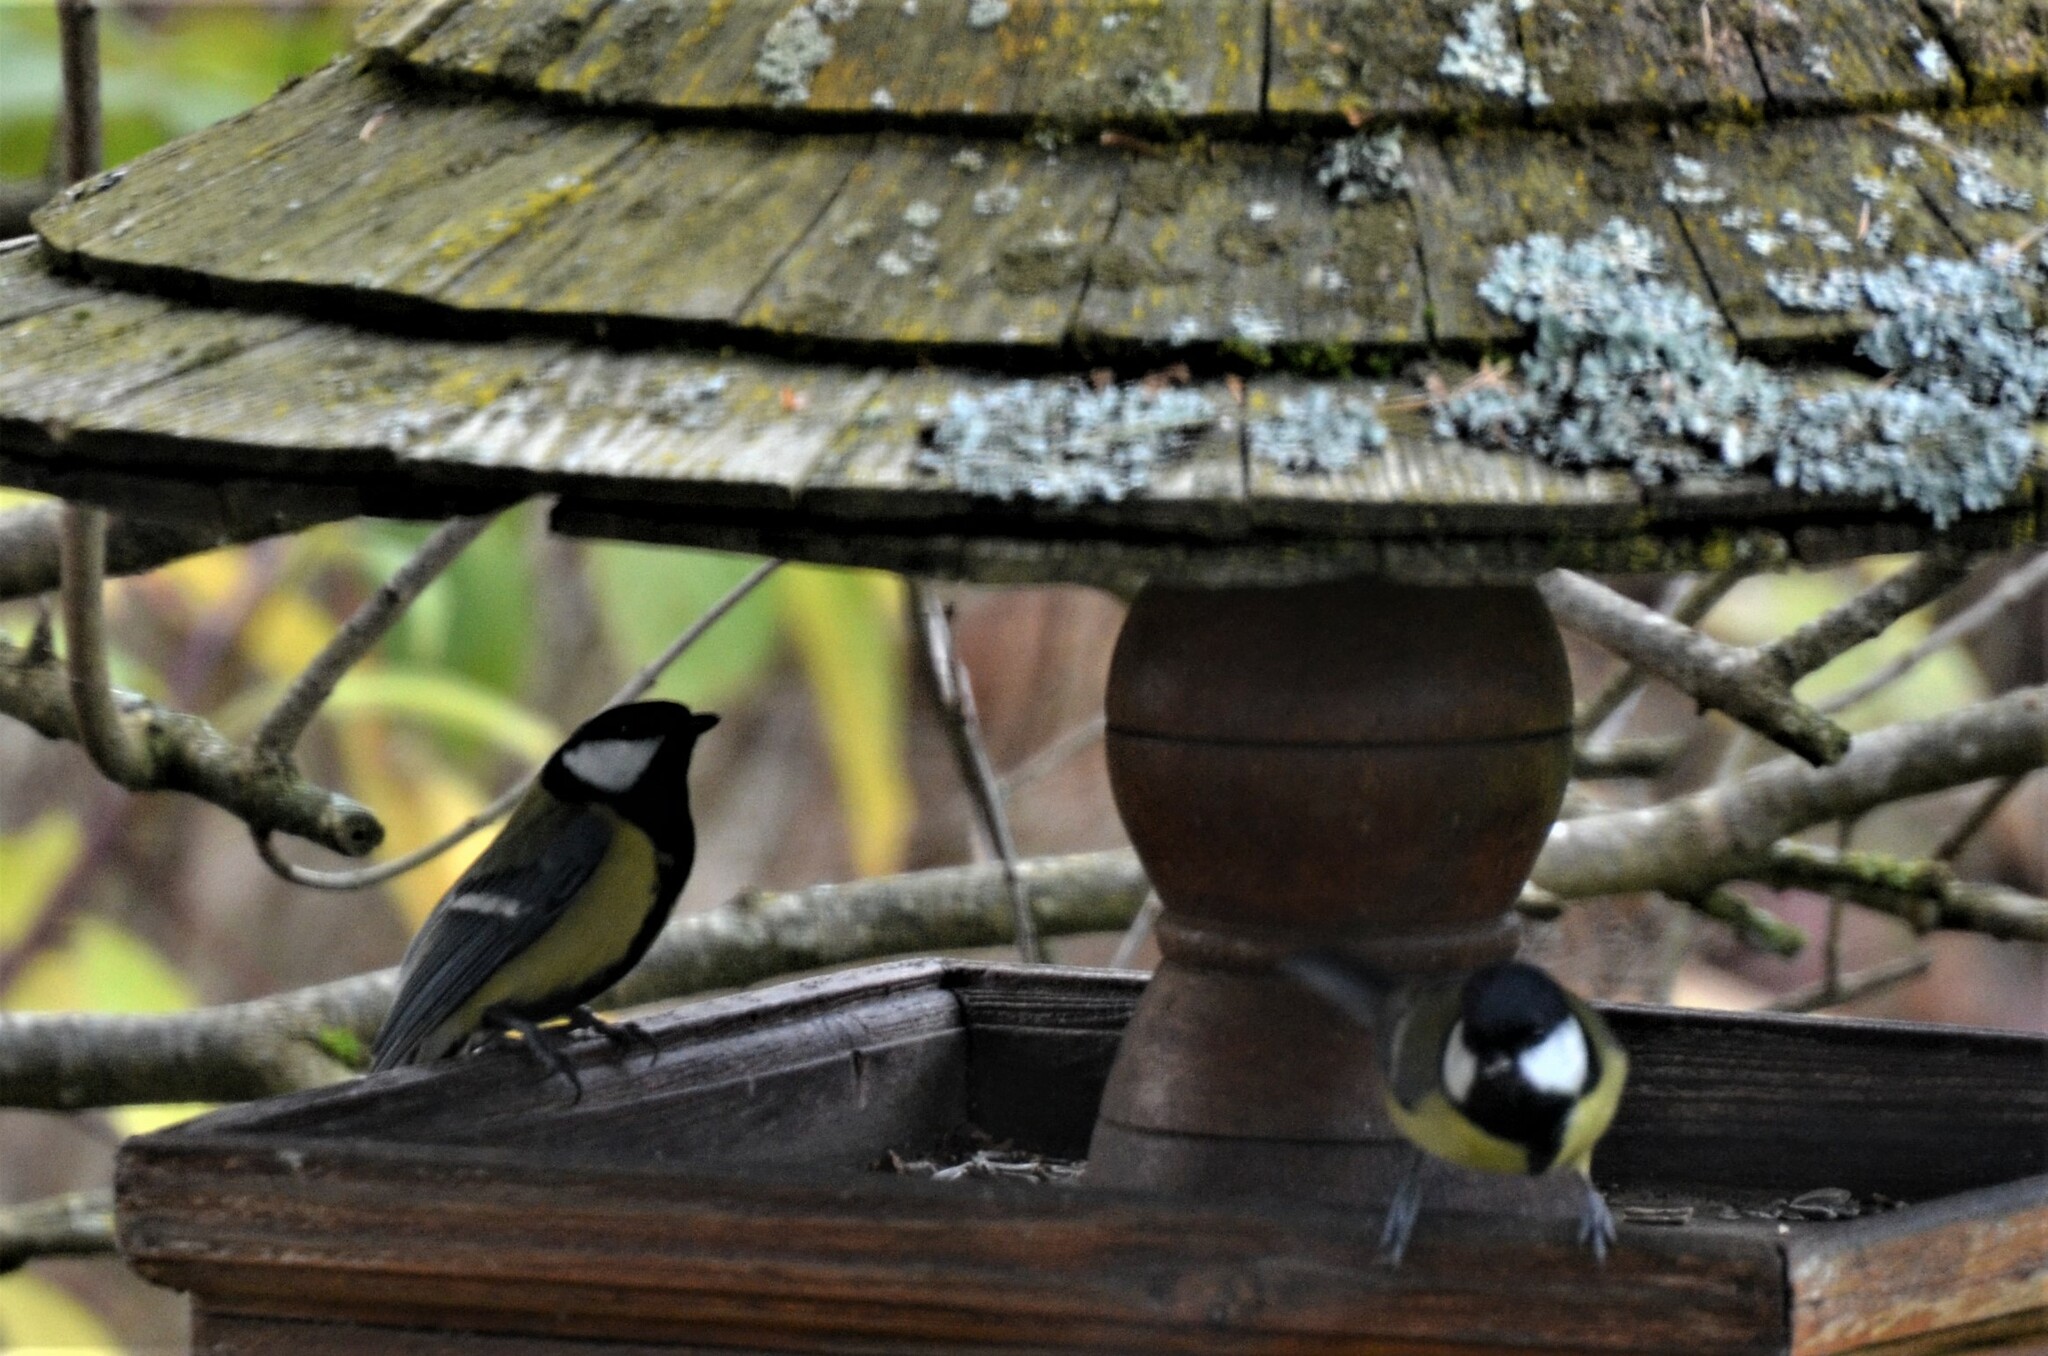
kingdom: Animalia
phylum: Chordata
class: Aves
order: Passeriformes
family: Paridae
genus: Parus
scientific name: Parus major
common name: Great tit
